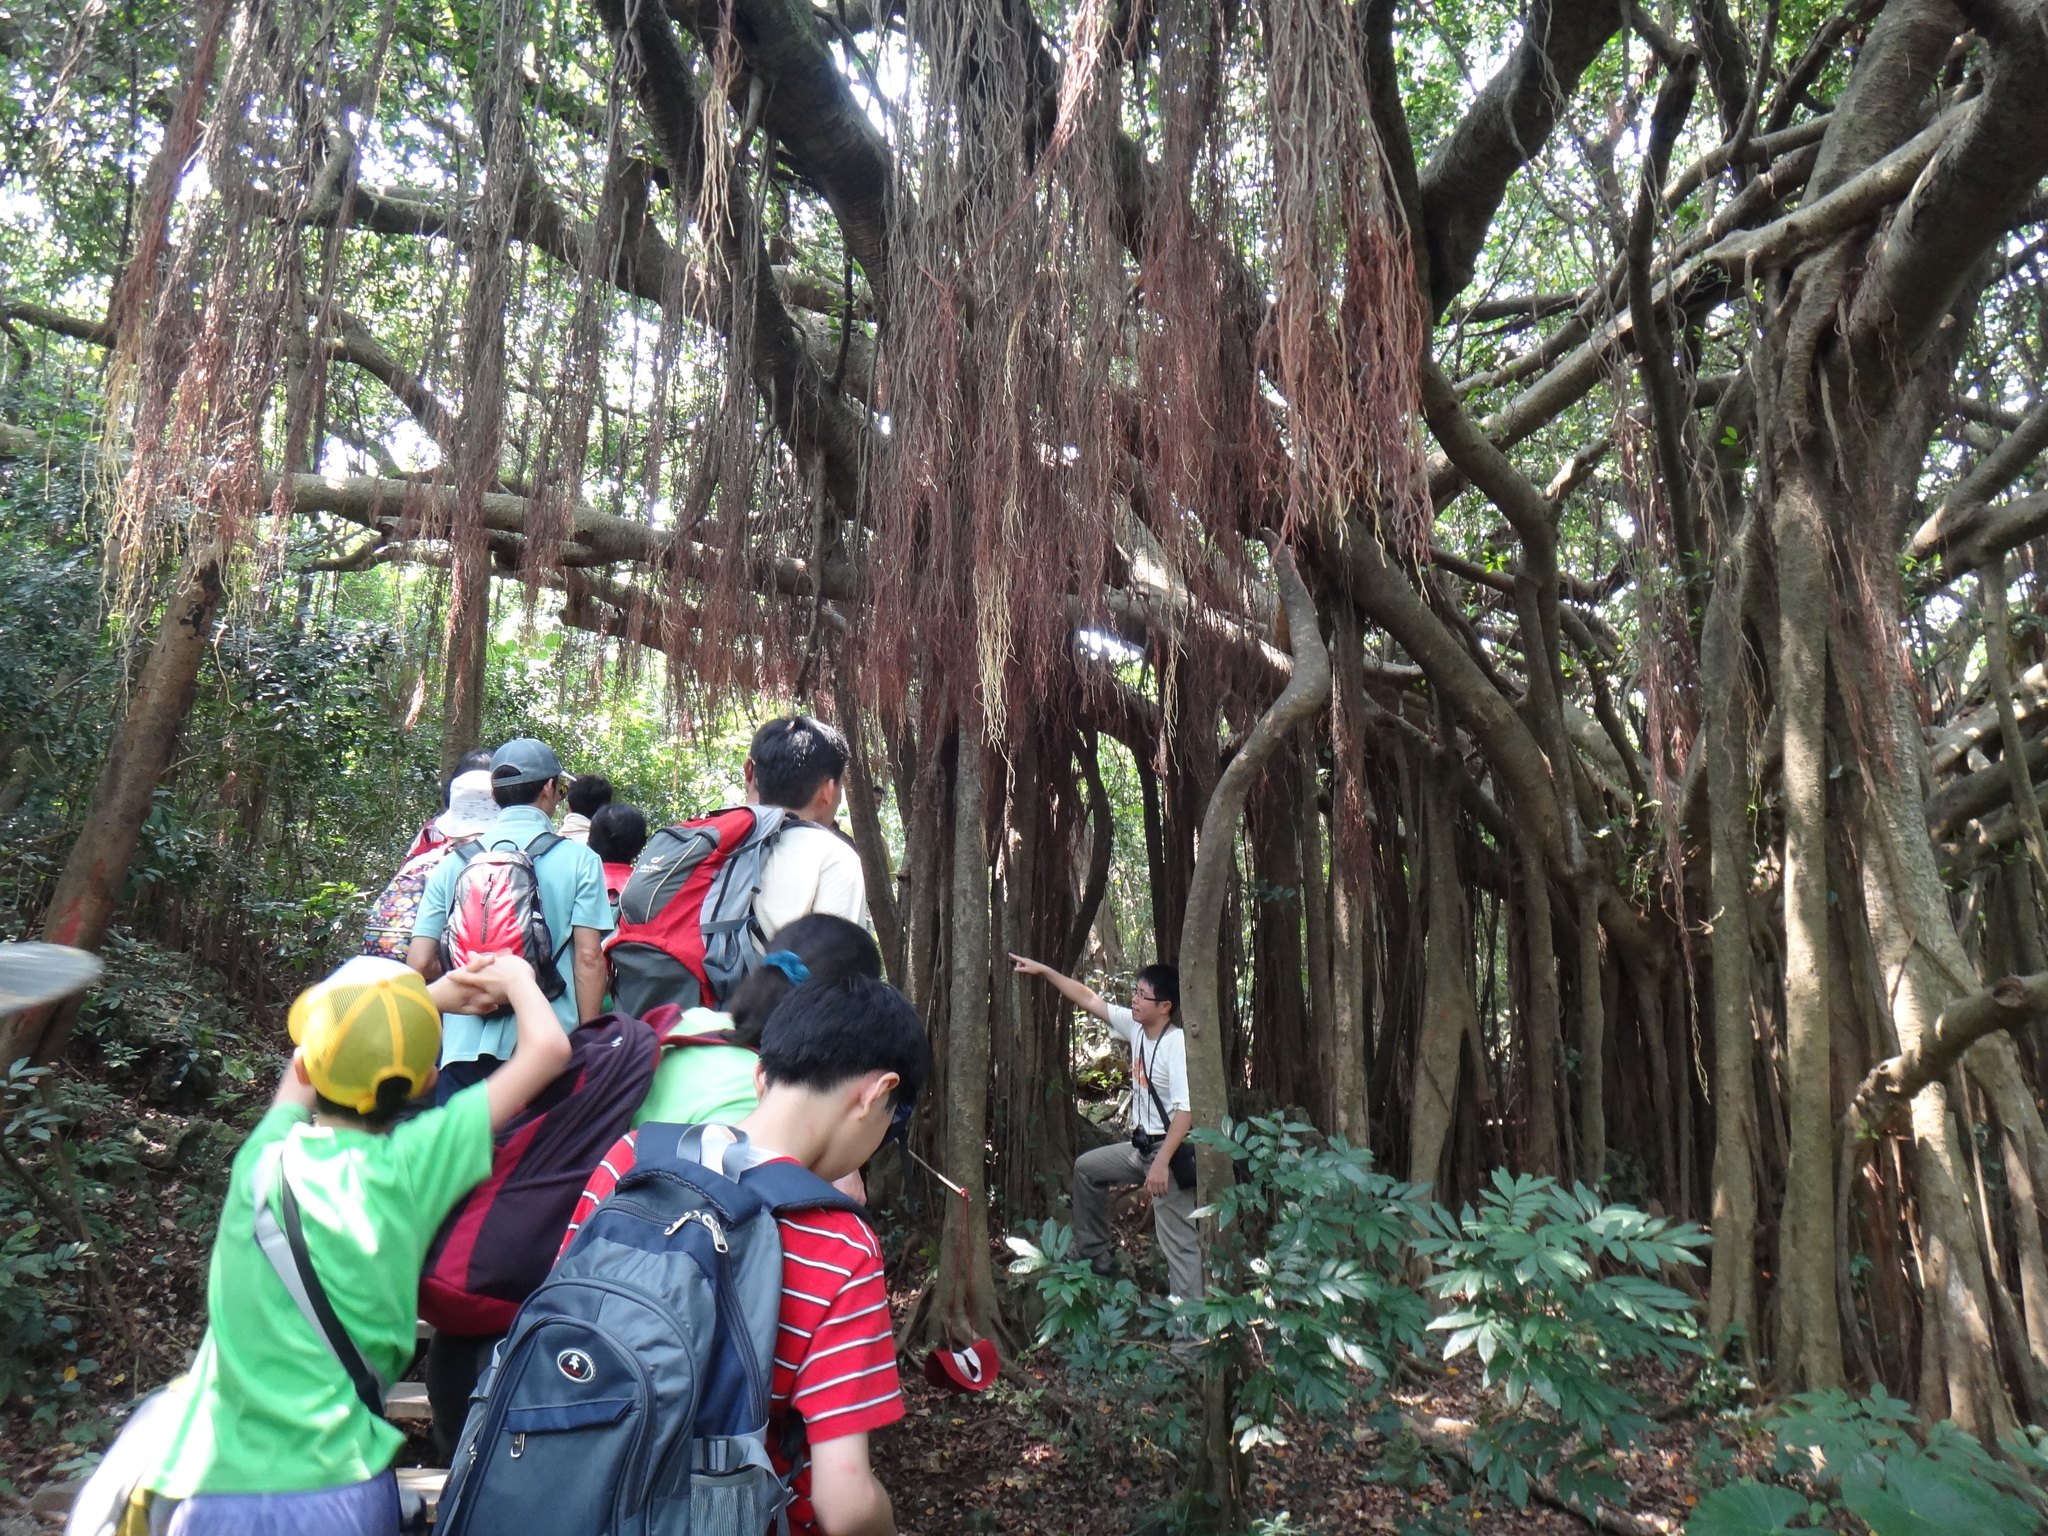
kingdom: Plantae
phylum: Tracheophyta
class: Magnoliopsida
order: Rosales
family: Moraceae
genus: Ficus
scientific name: Ficus microcarpa
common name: Chinese banyan
